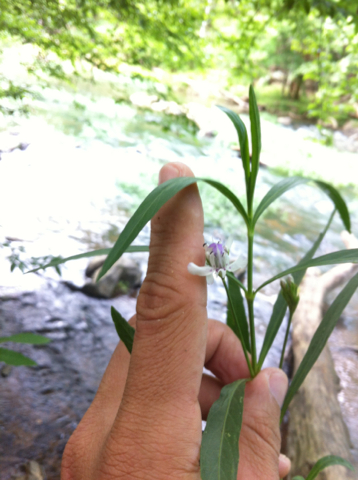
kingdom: Plantae
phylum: Tracheophyta
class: Magnoliopsida
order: Lamiales
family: Acanthaceae
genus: Dianthera
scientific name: Dianthera americana
